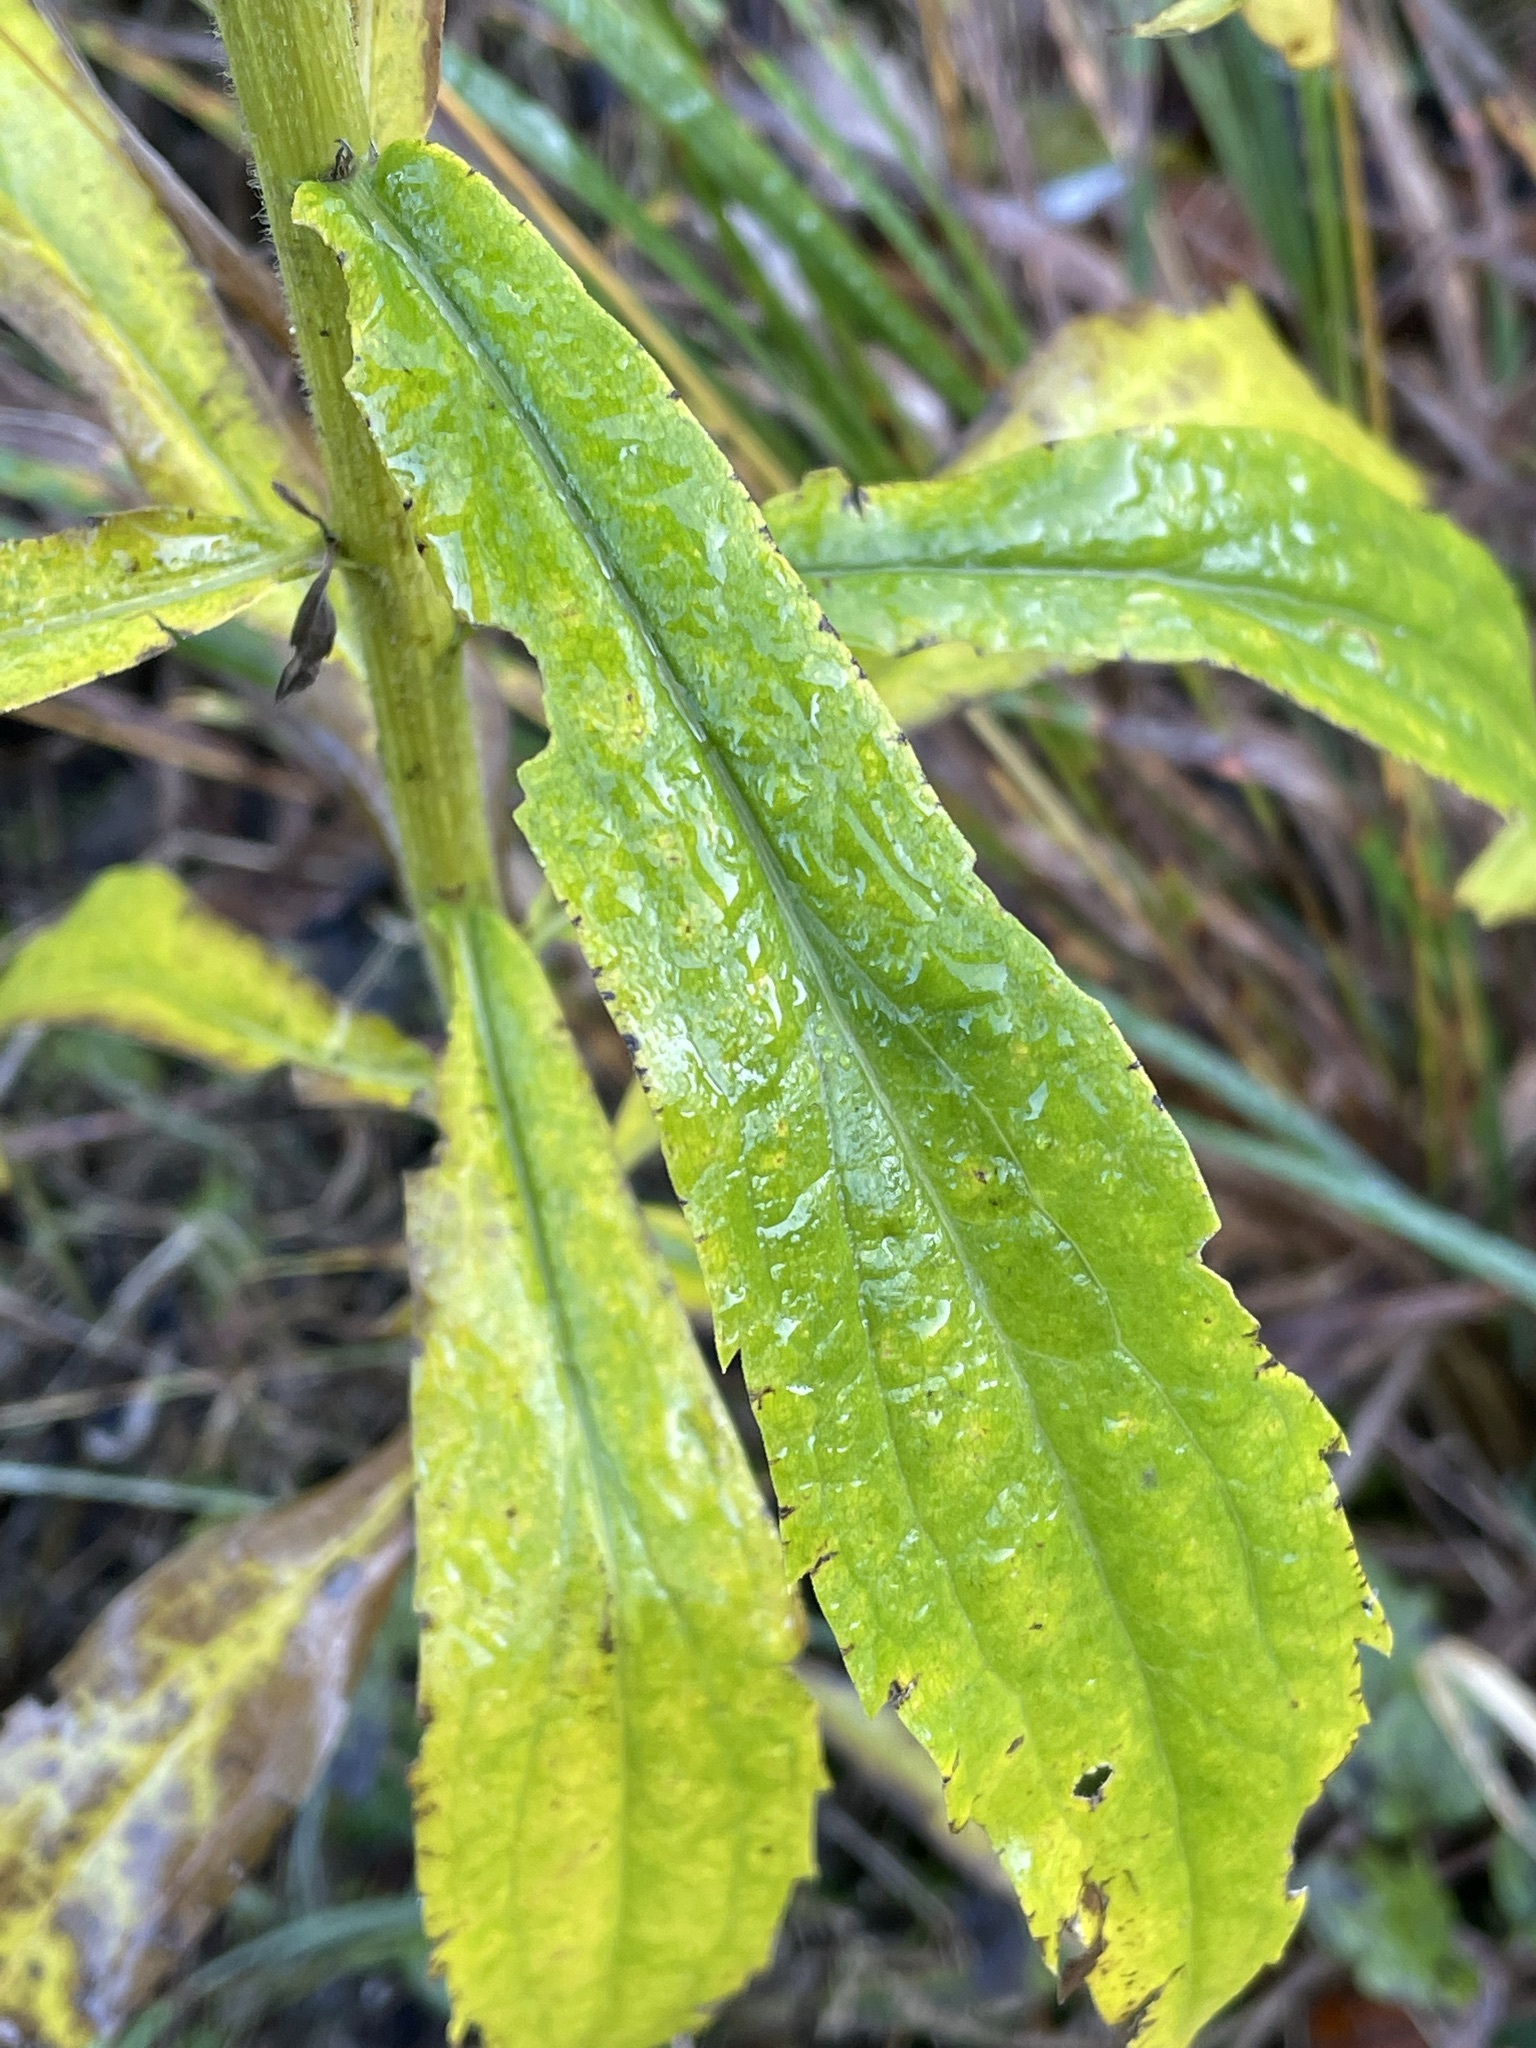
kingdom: Plantae
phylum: Tracheophyta
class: Magnoliopsida
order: Asterales
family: Asteraceae
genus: Solidago
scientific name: Solidago canadensis
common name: Canada goldenrod
